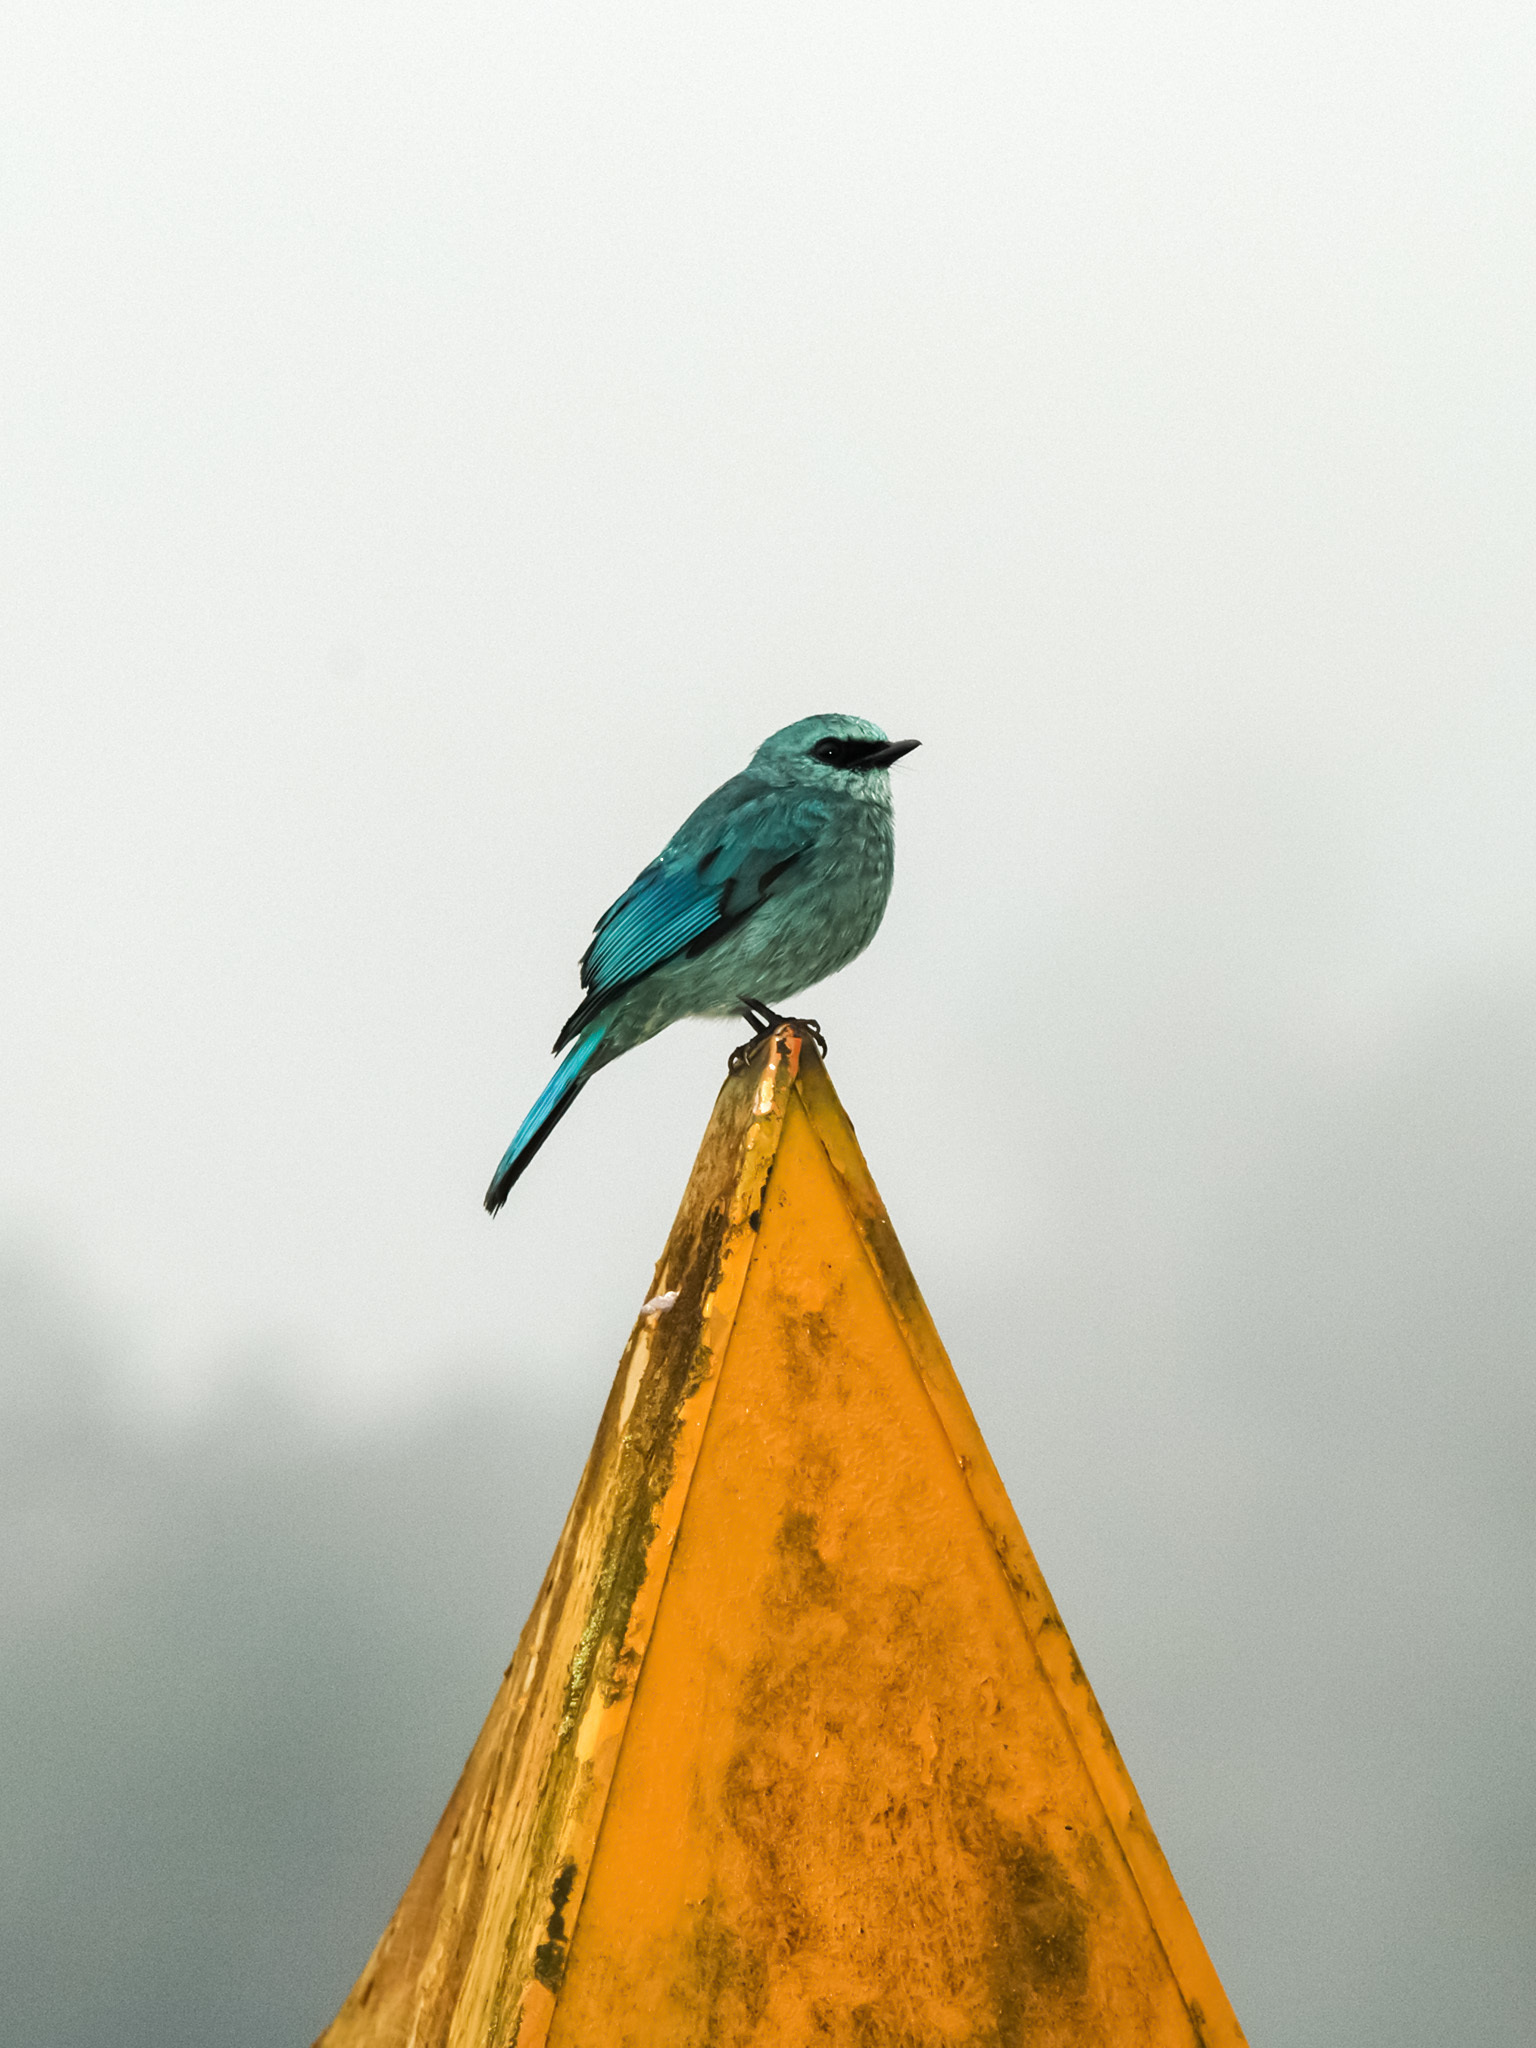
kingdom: Animalia
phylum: Chordata
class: Aves
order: Passeriformes
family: Muscicapidae
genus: Eumyias
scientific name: Eumyias thalassinus
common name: Verditer flycatcher
